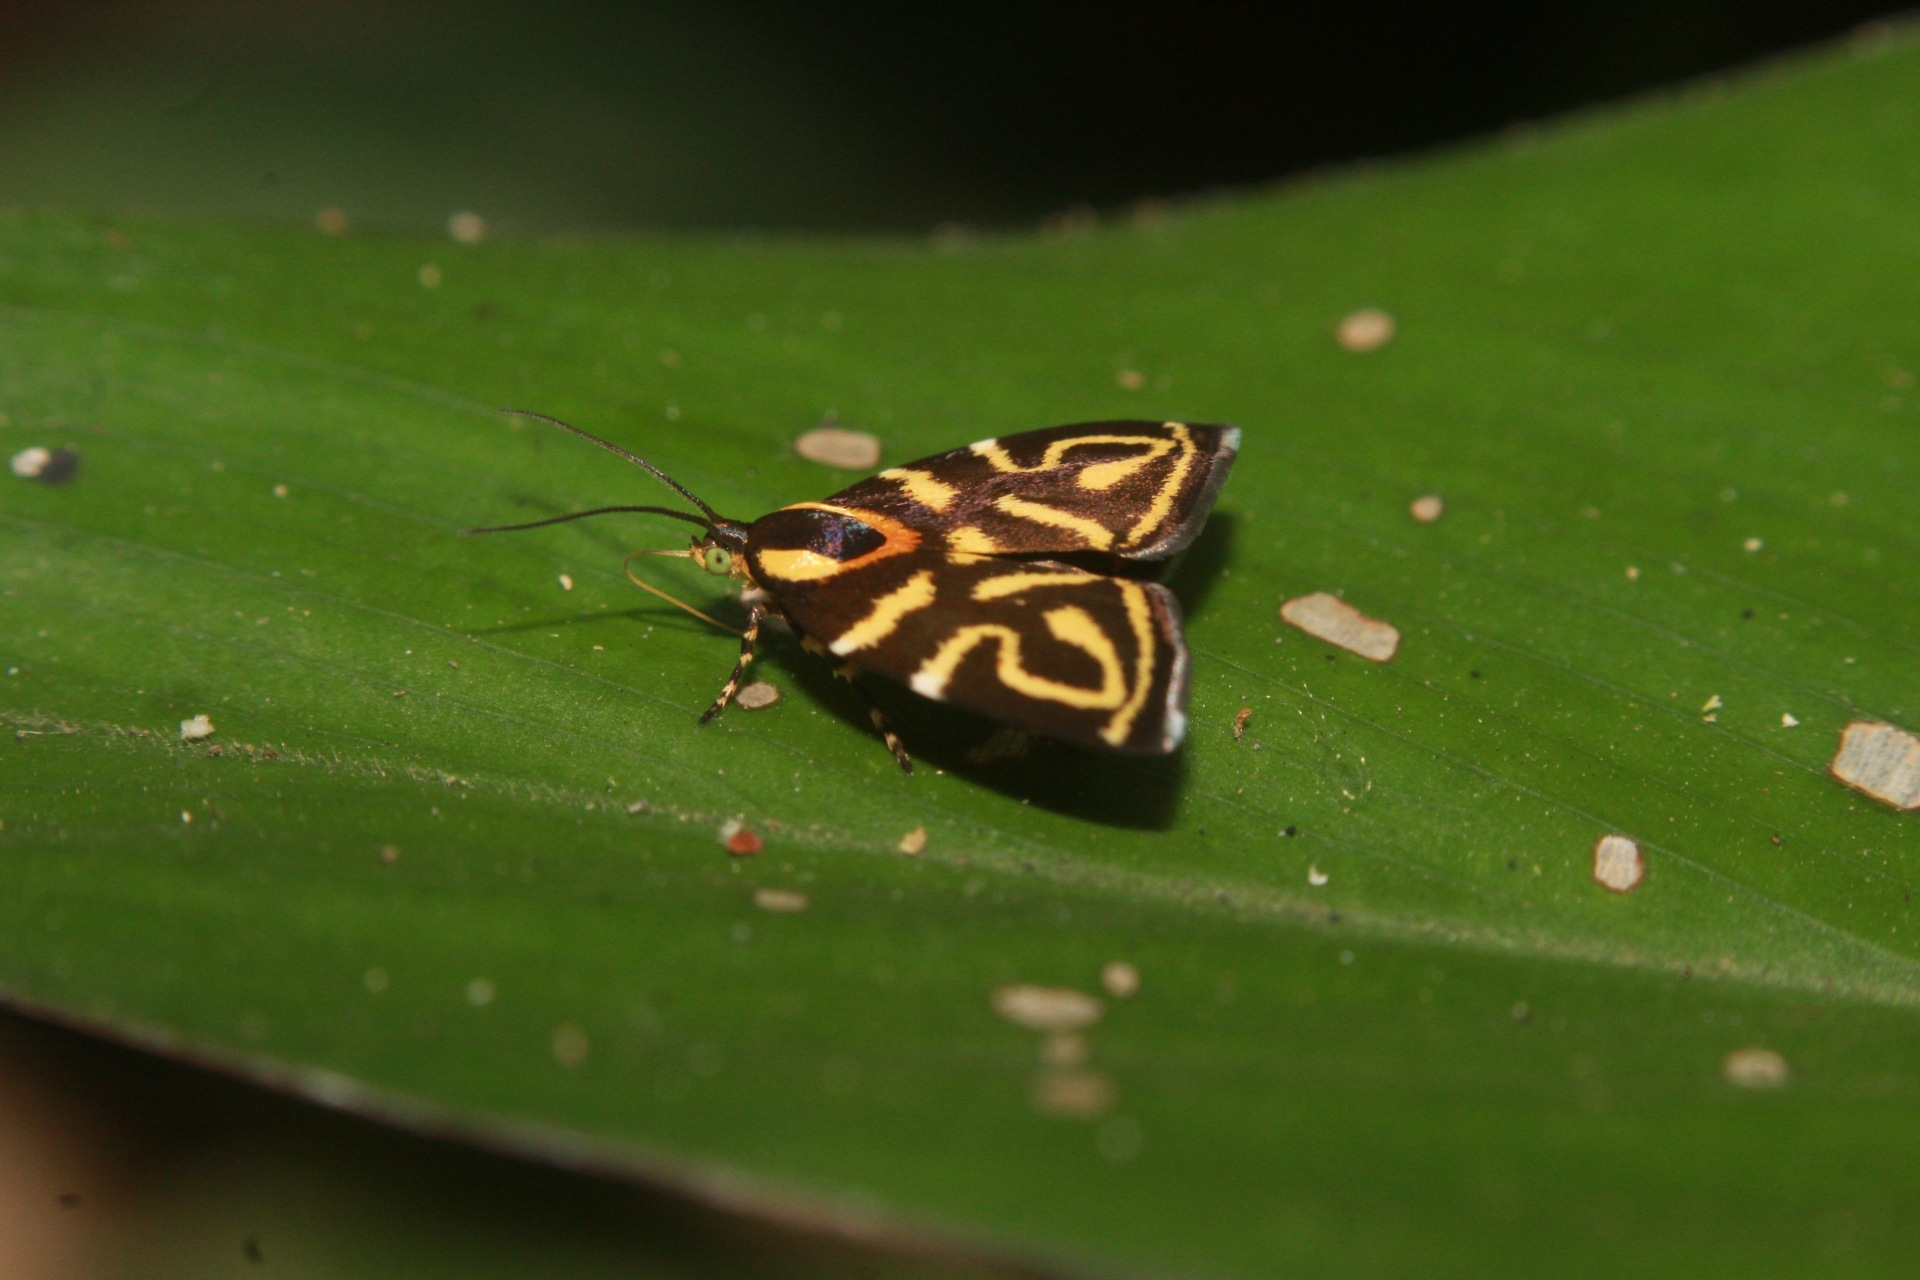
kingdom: Animalia
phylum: Arthropoda
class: Insecta
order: Lepidoptera
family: Choreutidae
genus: Anthophila
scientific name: Anthophila albertiana
